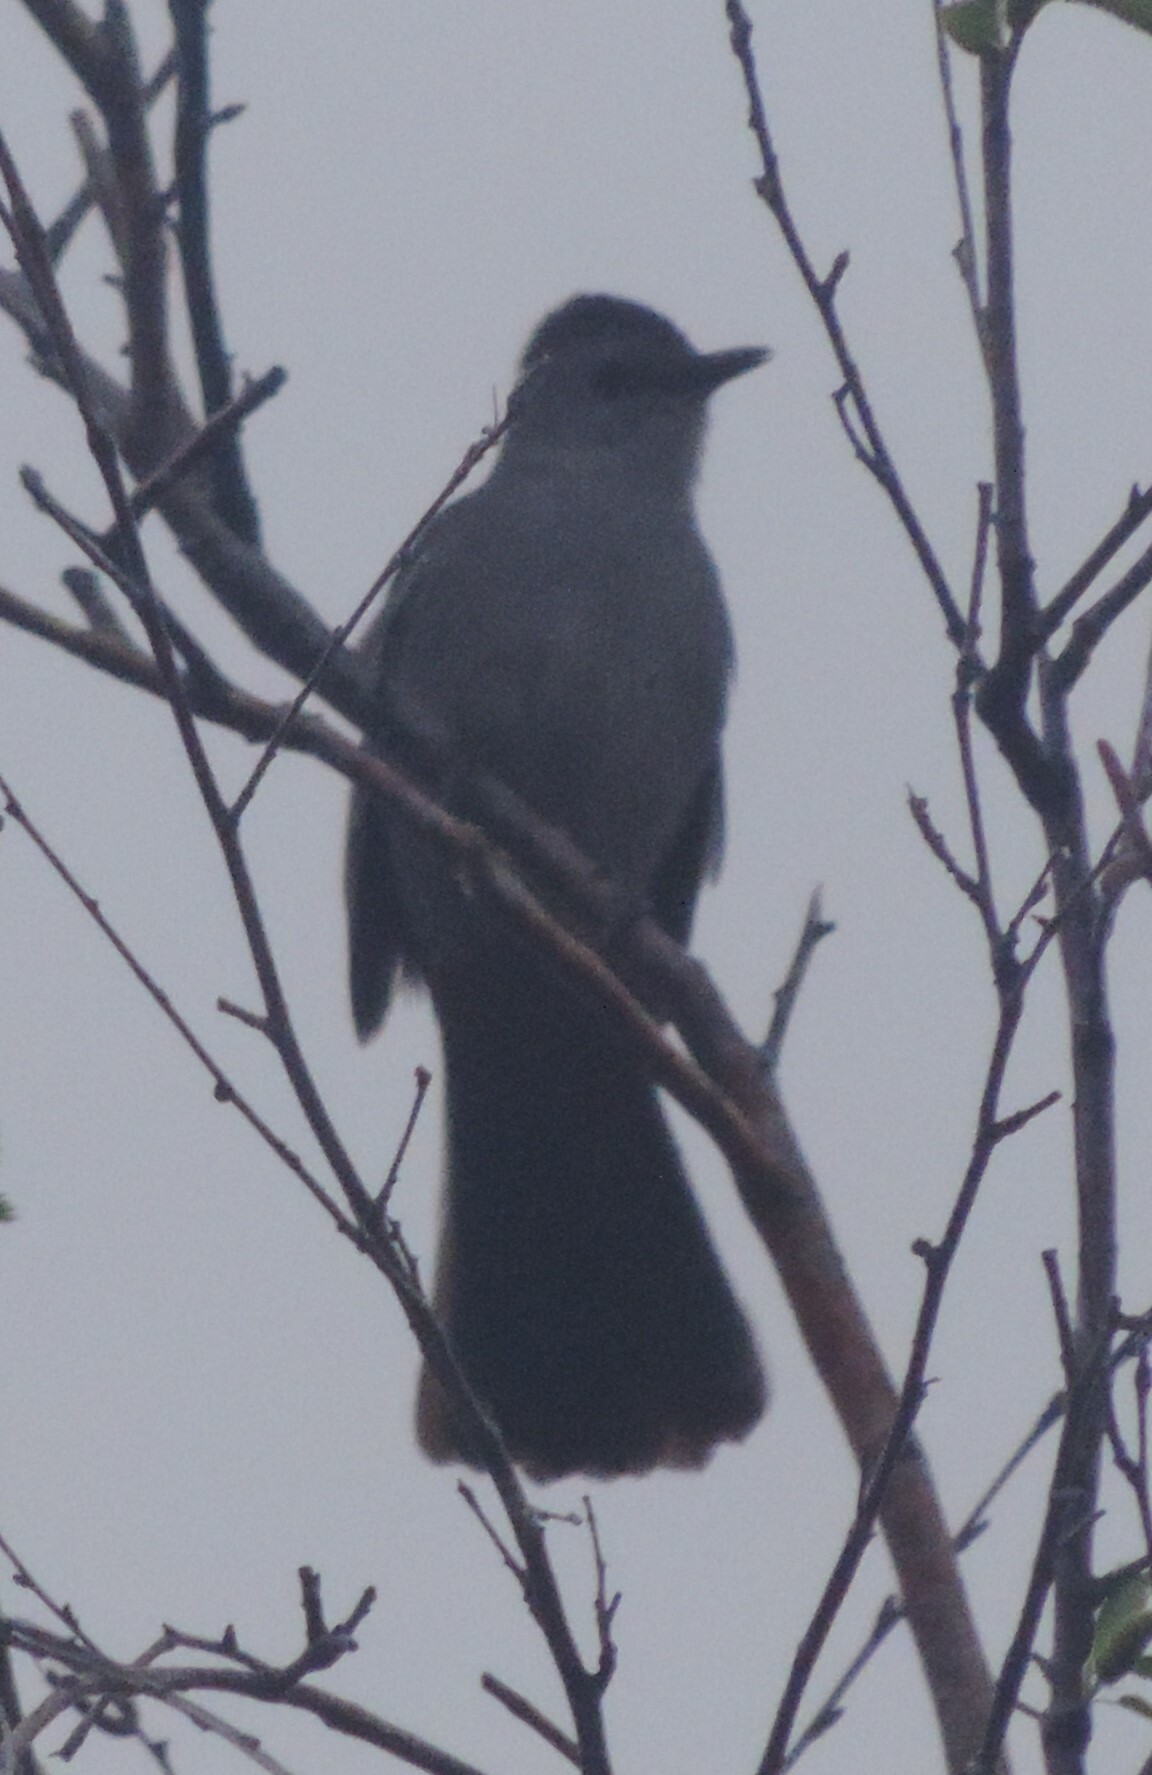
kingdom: Animalia
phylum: Chordata
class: Aves
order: Passeriformes
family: Mimidae
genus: Dumetella
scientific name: Dumetella carolinensis
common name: Gray catbird
